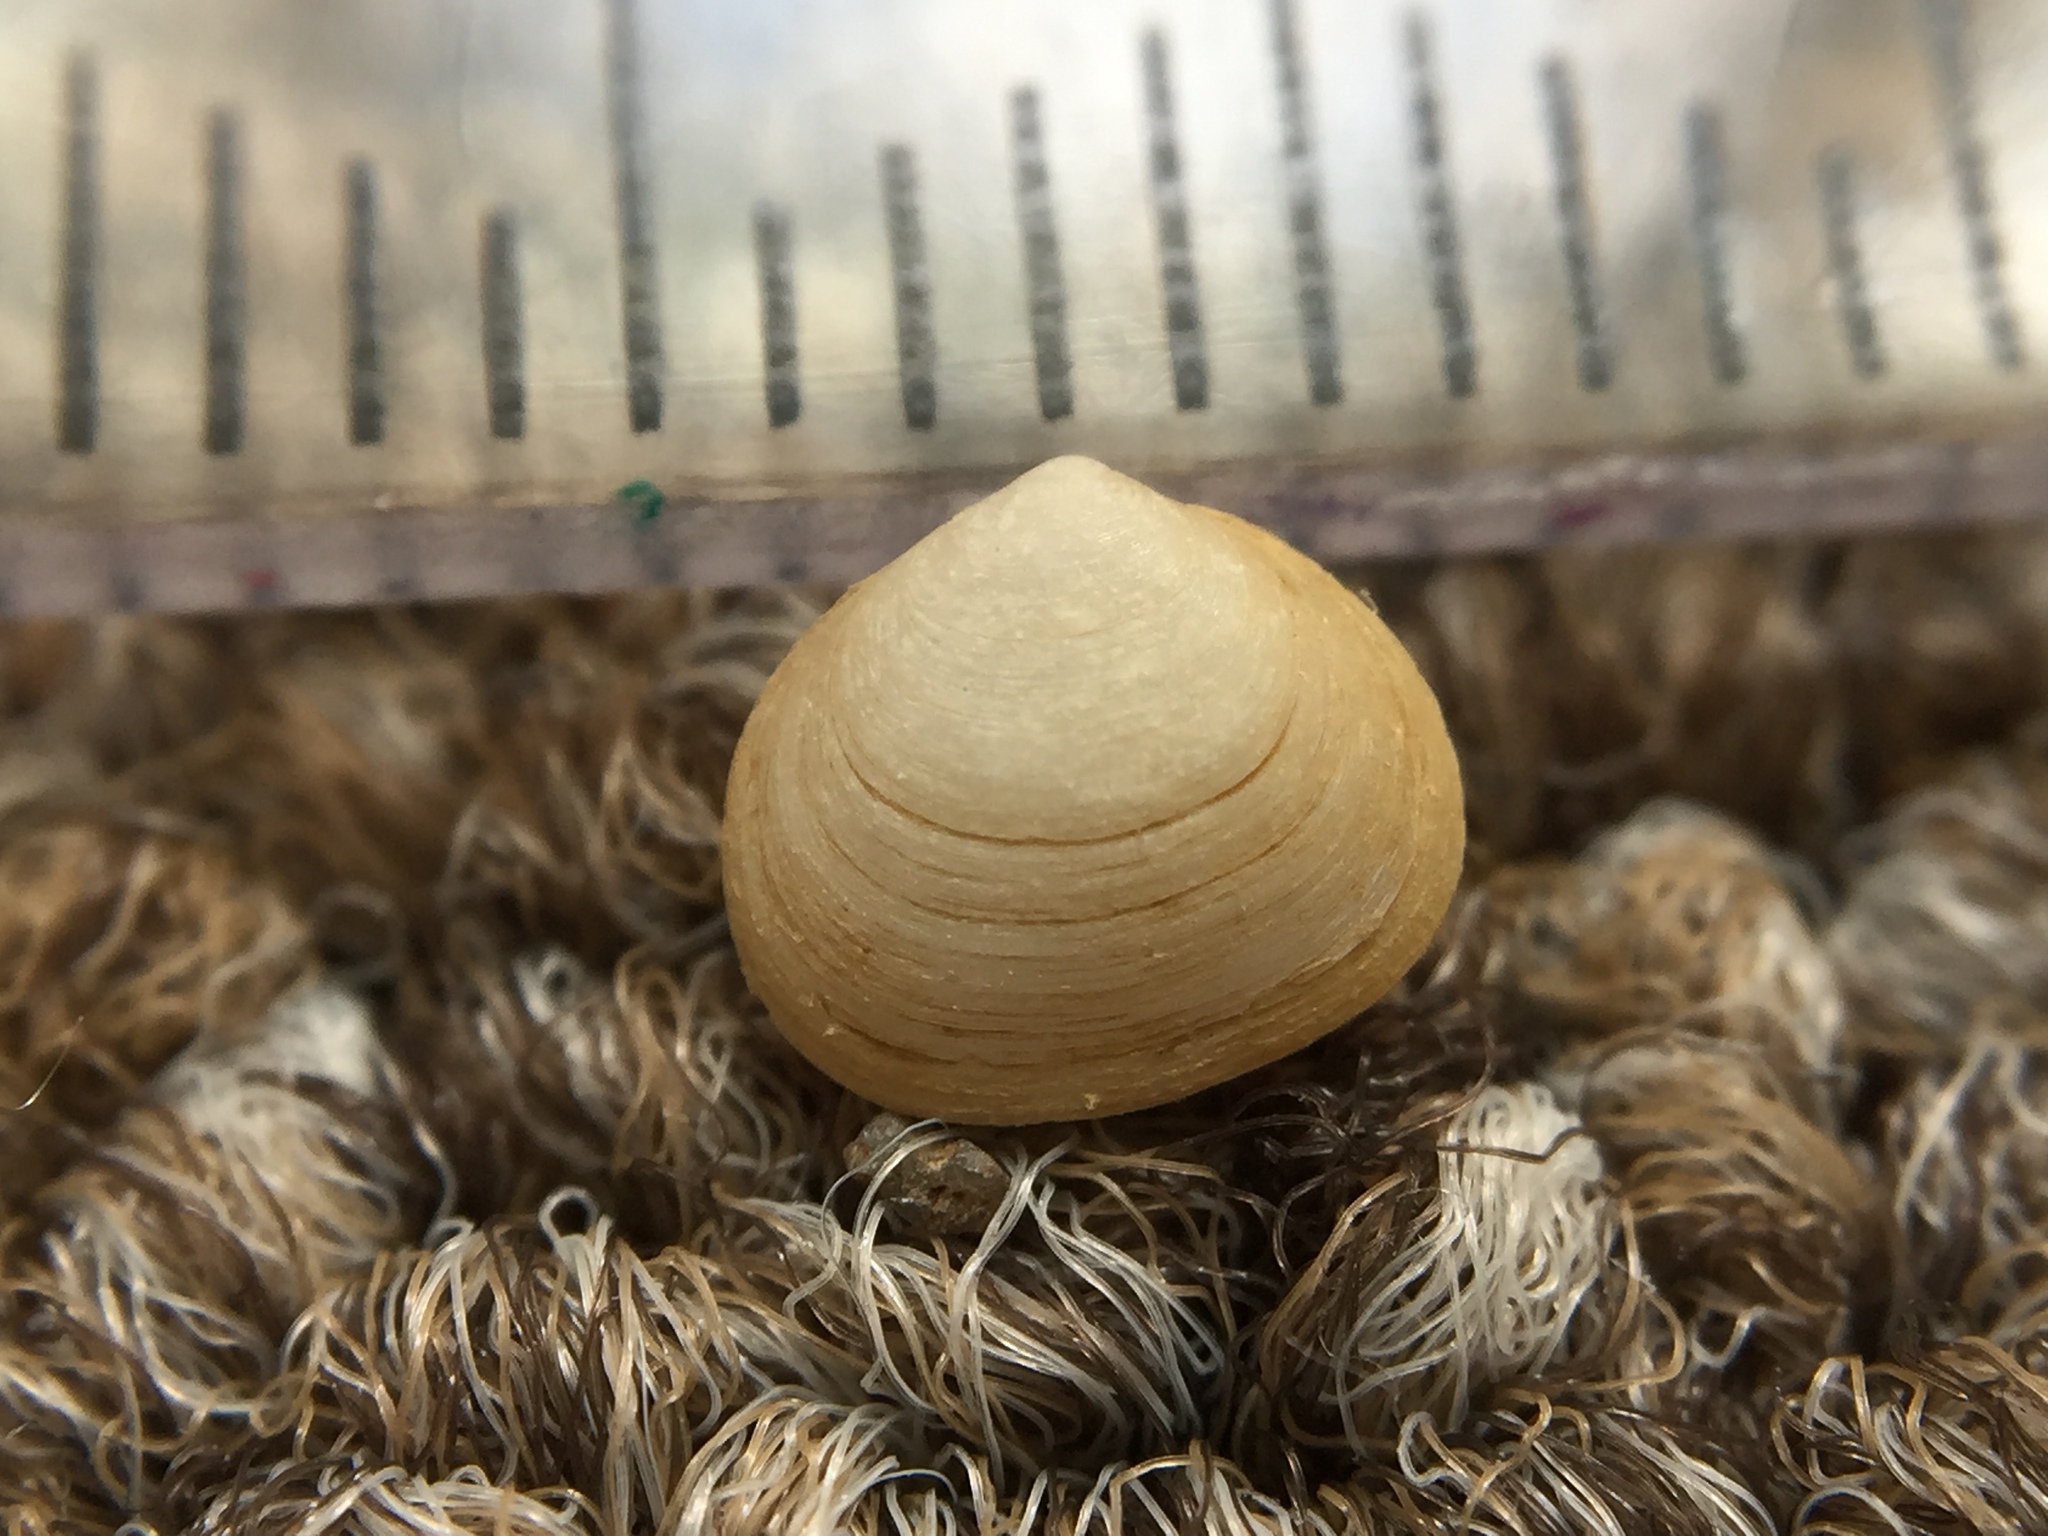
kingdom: Animalia
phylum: Mollusca
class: Bivalvia
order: Galeommatida
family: Lasaeidae
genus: Borniola
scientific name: Borniola reniformis
